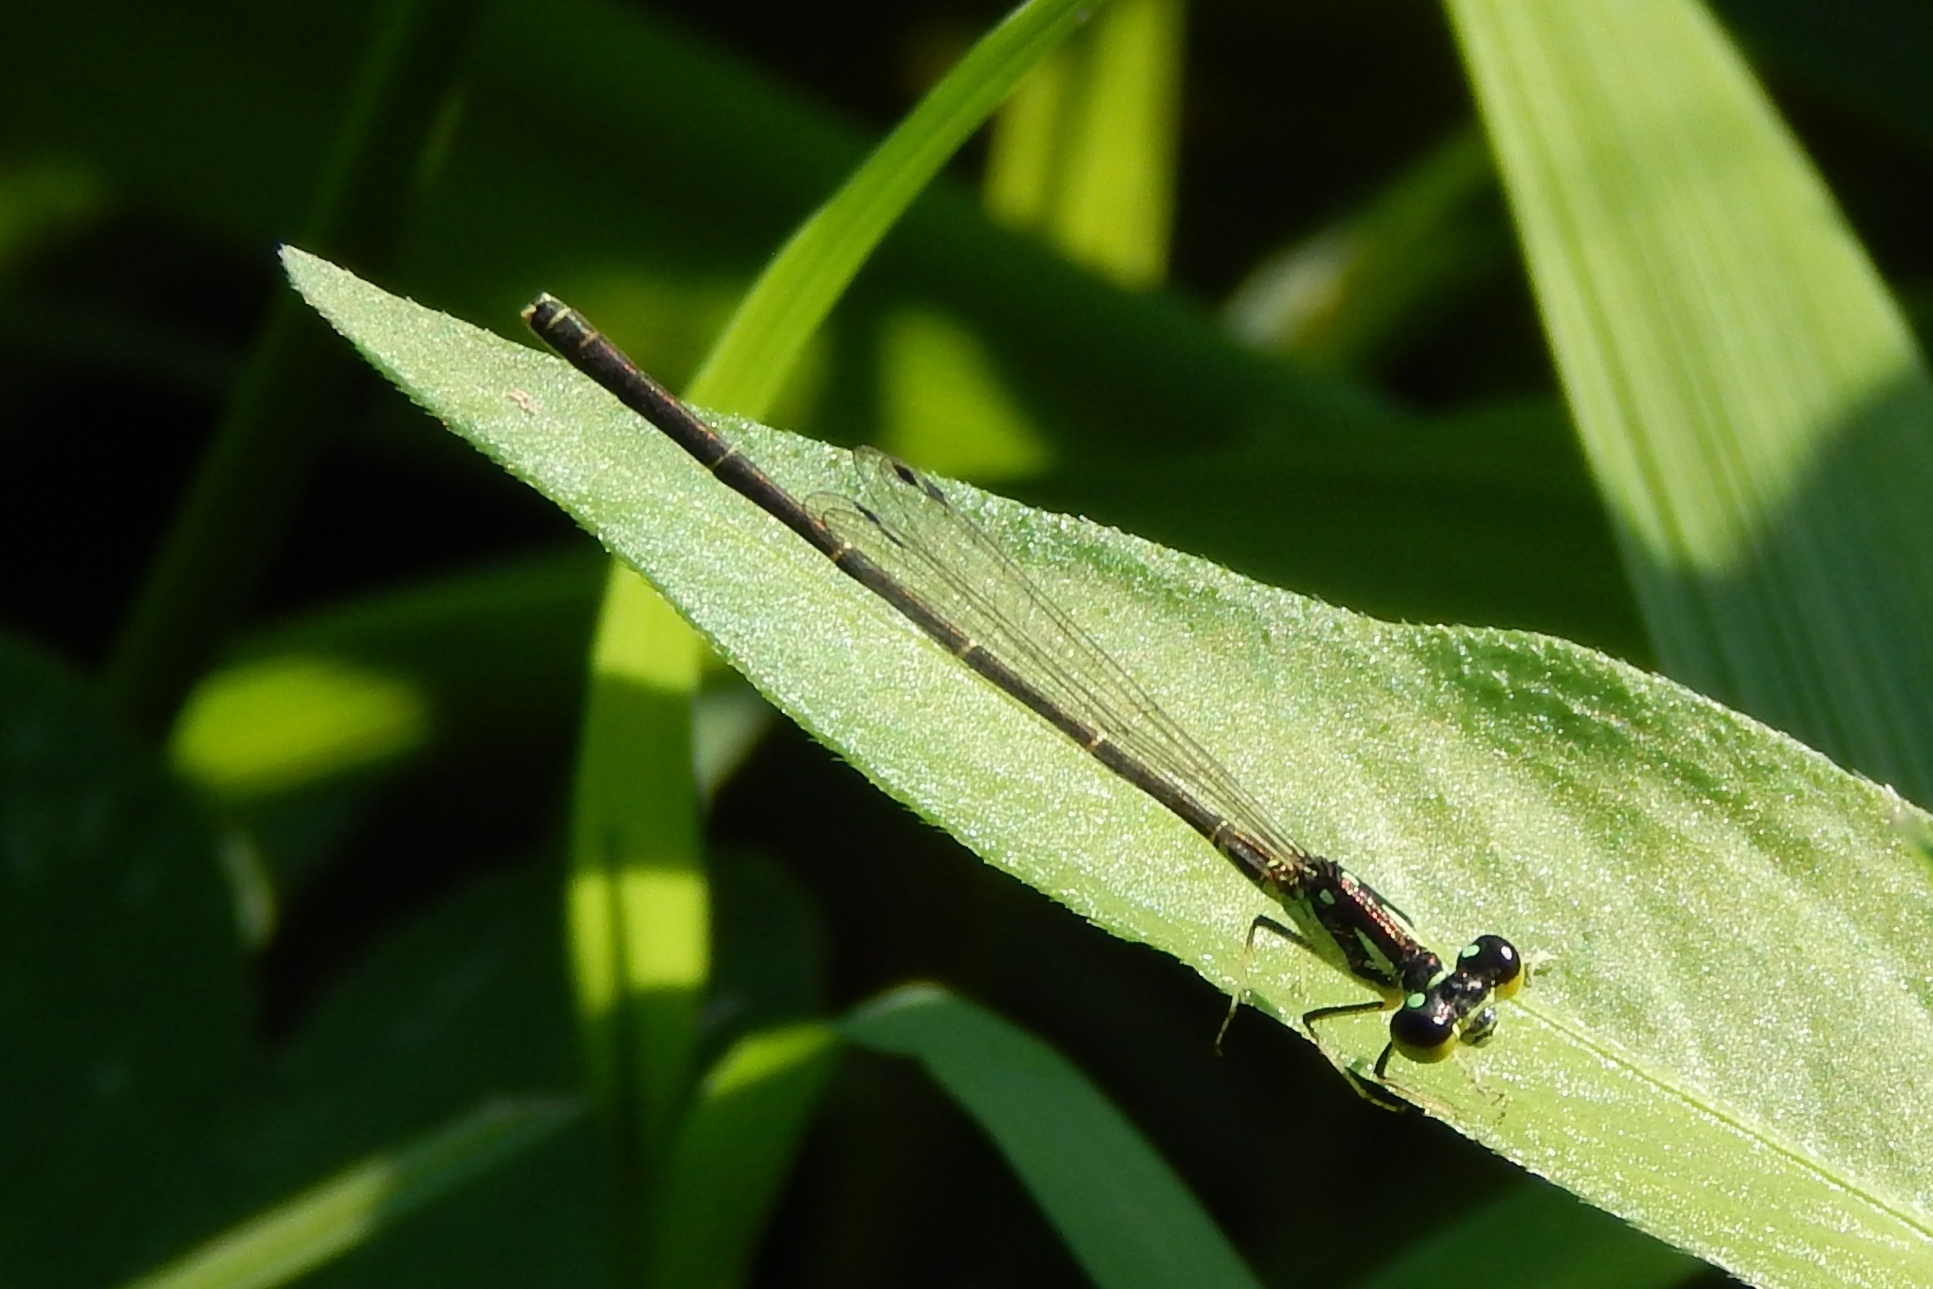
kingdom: Animalia
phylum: Arthropoda
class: Insecta
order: Odonata
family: Coenagrionidae
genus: Ischnura
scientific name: Ischnura posita
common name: Fragile forktail
